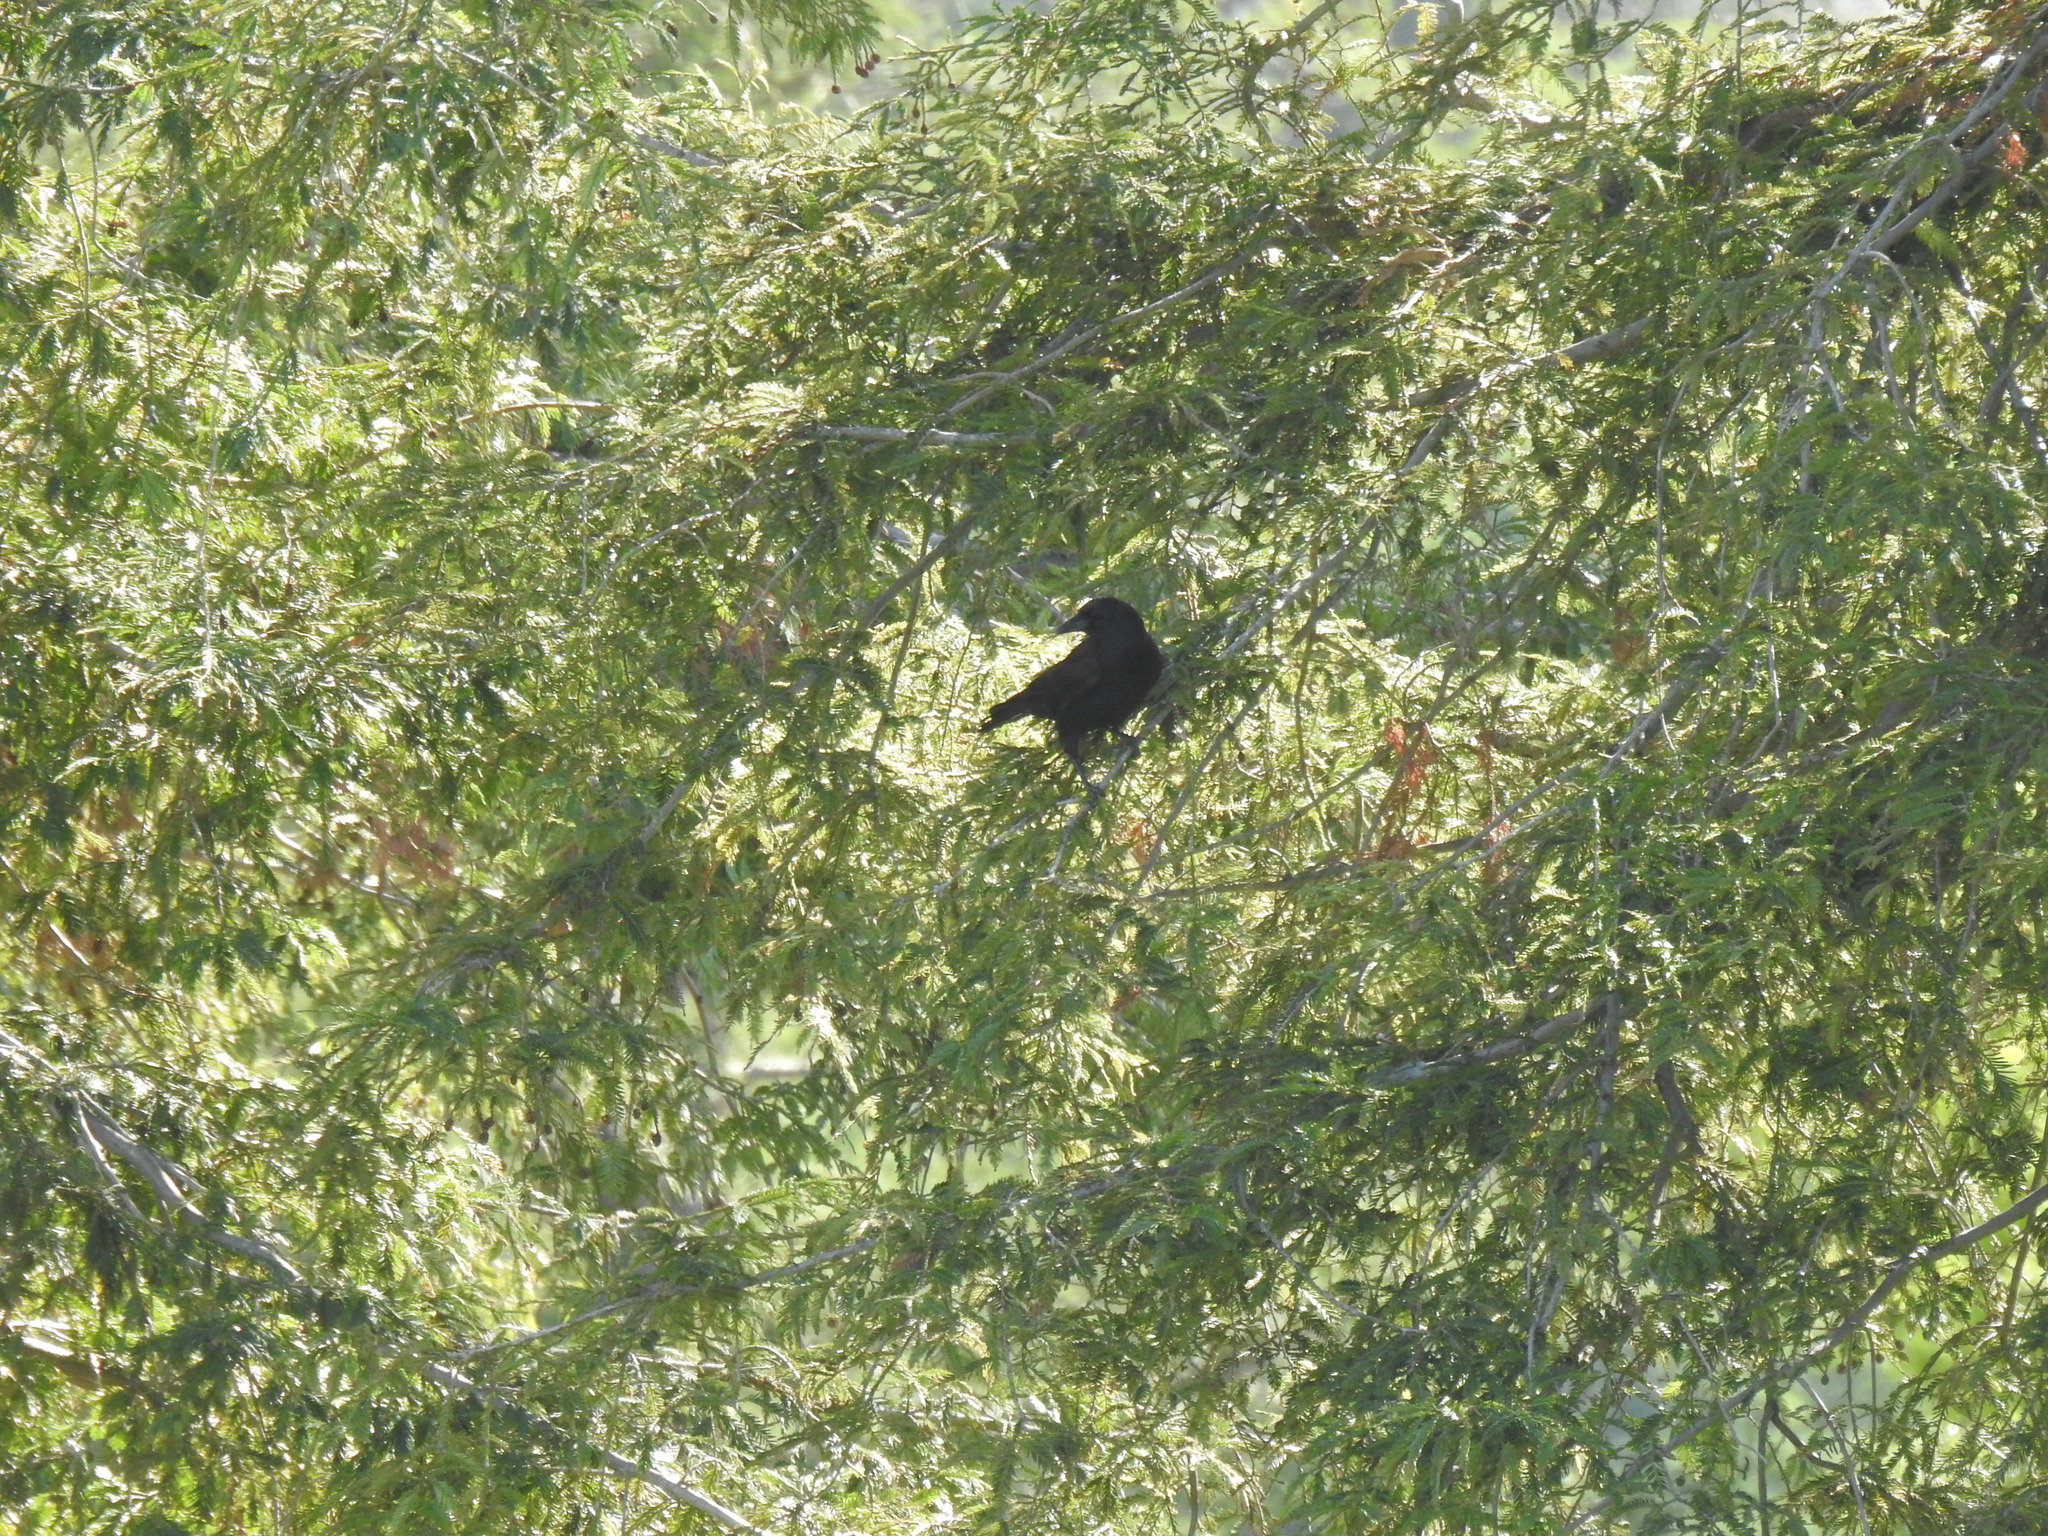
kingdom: Animalia
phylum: Chordata
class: Aves
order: Passeriformes
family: Corvidae
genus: Corvus
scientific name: Corvus brachyrhynchos
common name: American crow
